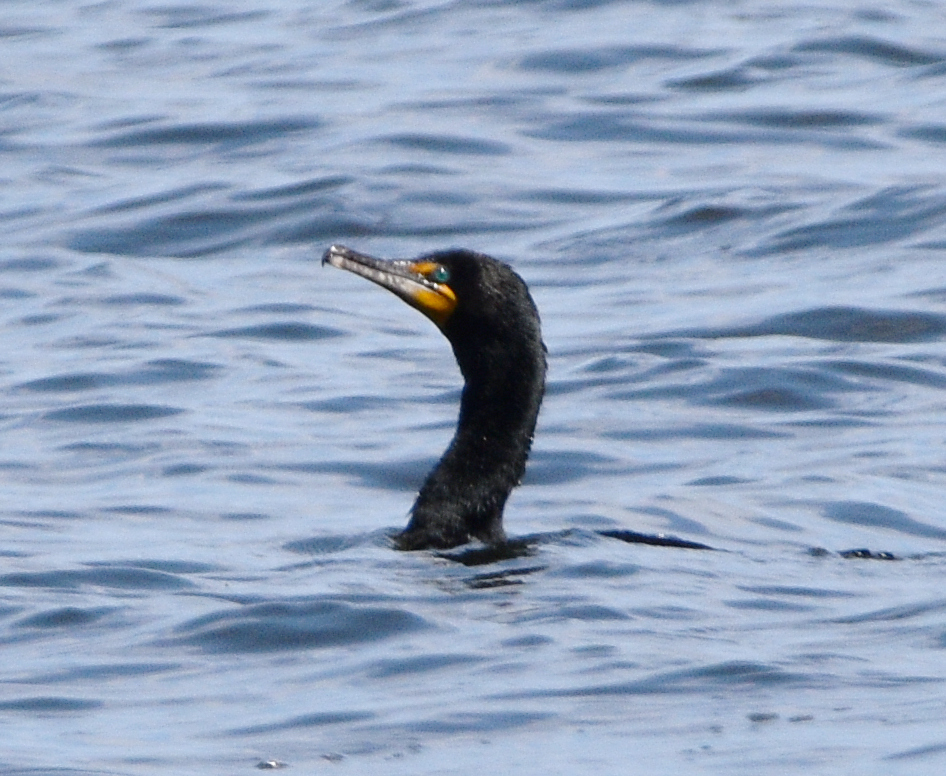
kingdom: Animalia
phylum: Chordata
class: Aves
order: Suliformes
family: Phalacrocoracidae
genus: Phalacrocorax
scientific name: Phalacrocorax auritus
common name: Double-crested cormorant
